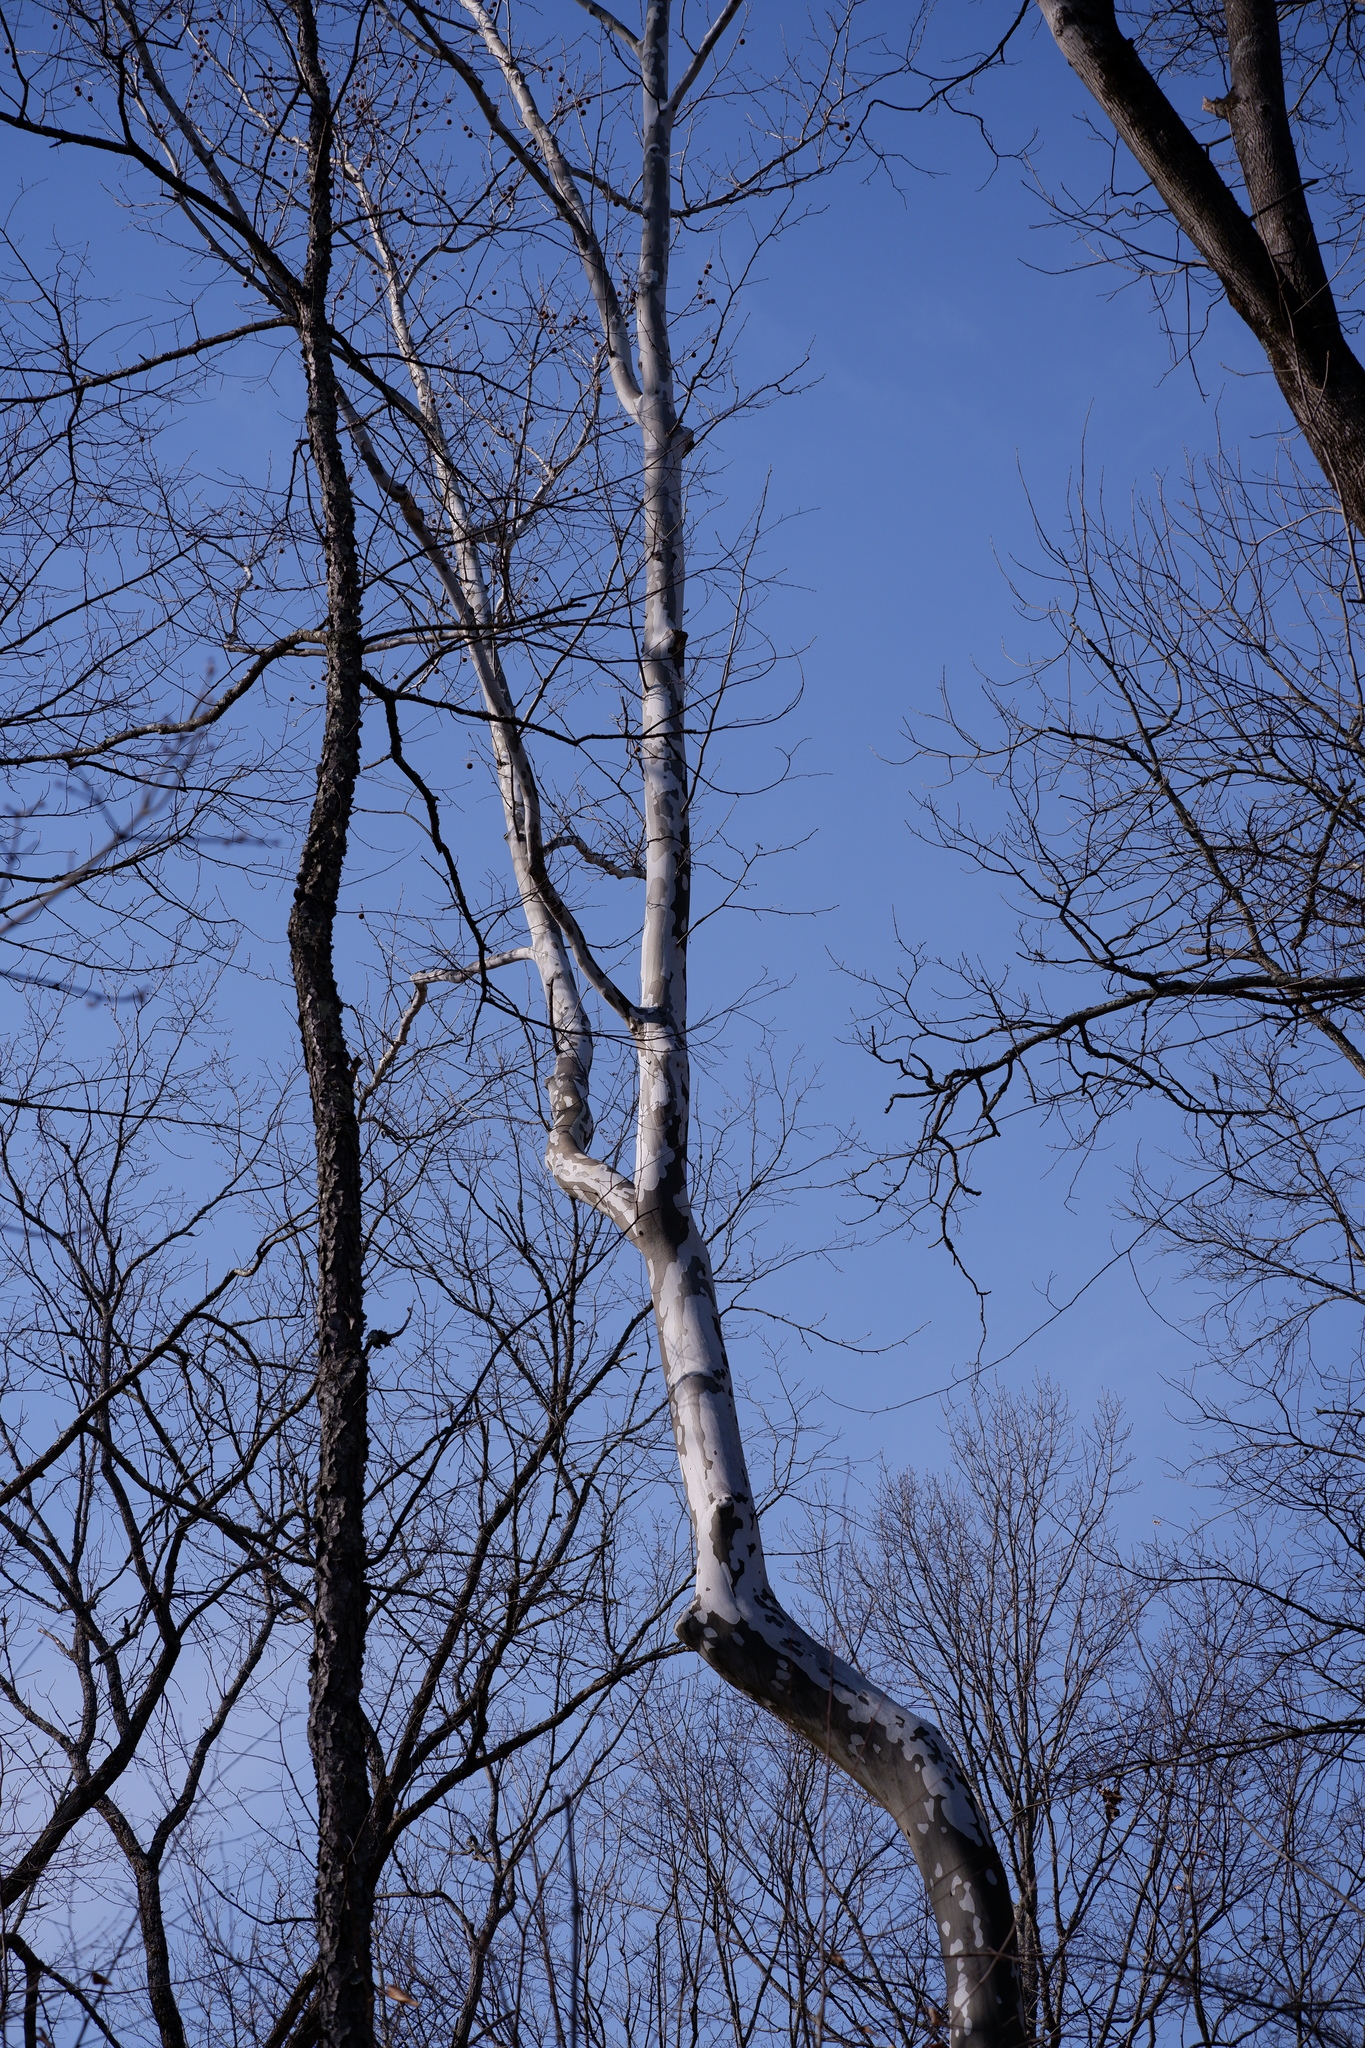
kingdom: Plantae
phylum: Tracheophyta
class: Magnoliopsida
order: Proteales
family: Platanaceae
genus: Platanus
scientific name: Platanus occidentalis
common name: American sycamore
